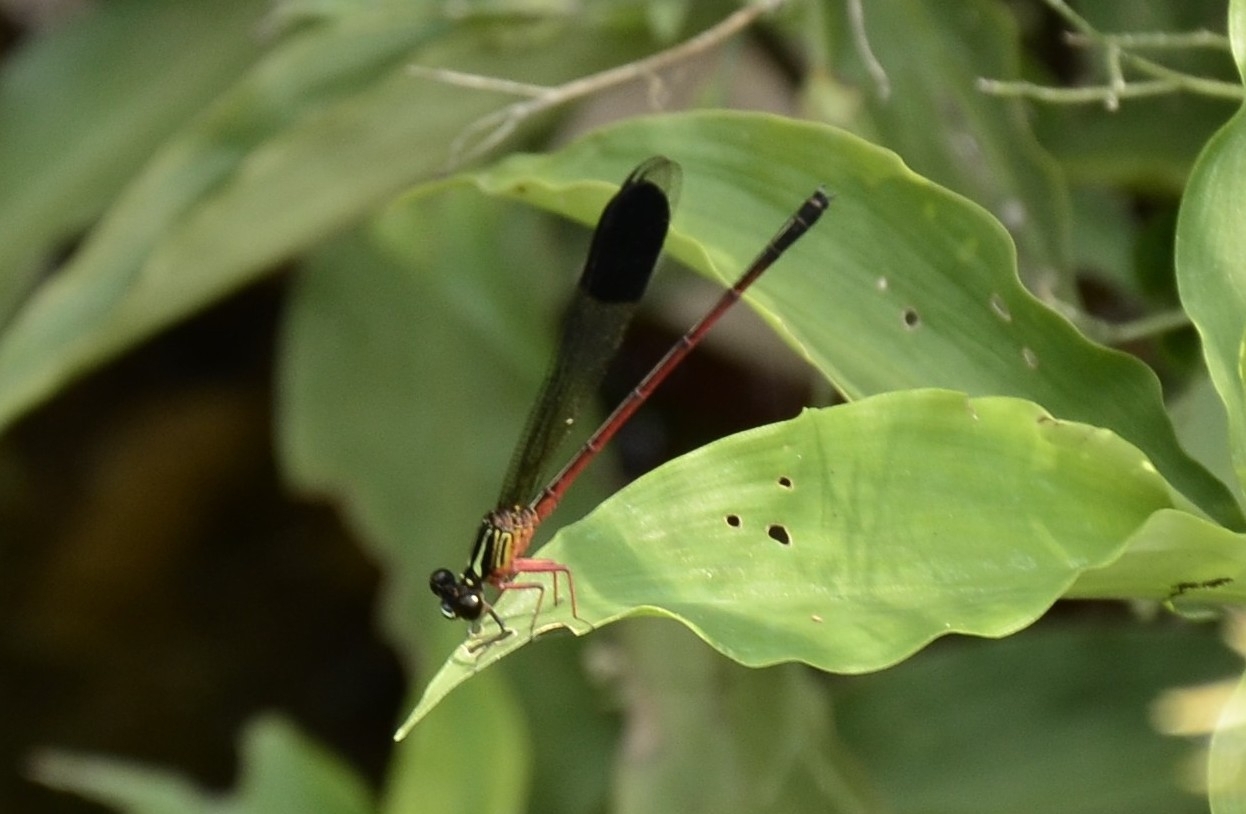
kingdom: Animalia
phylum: Arthropoda
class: Insecta
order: Odonata
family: Euphaeidae
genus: Euphaea
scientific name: Euphaea fraseri
